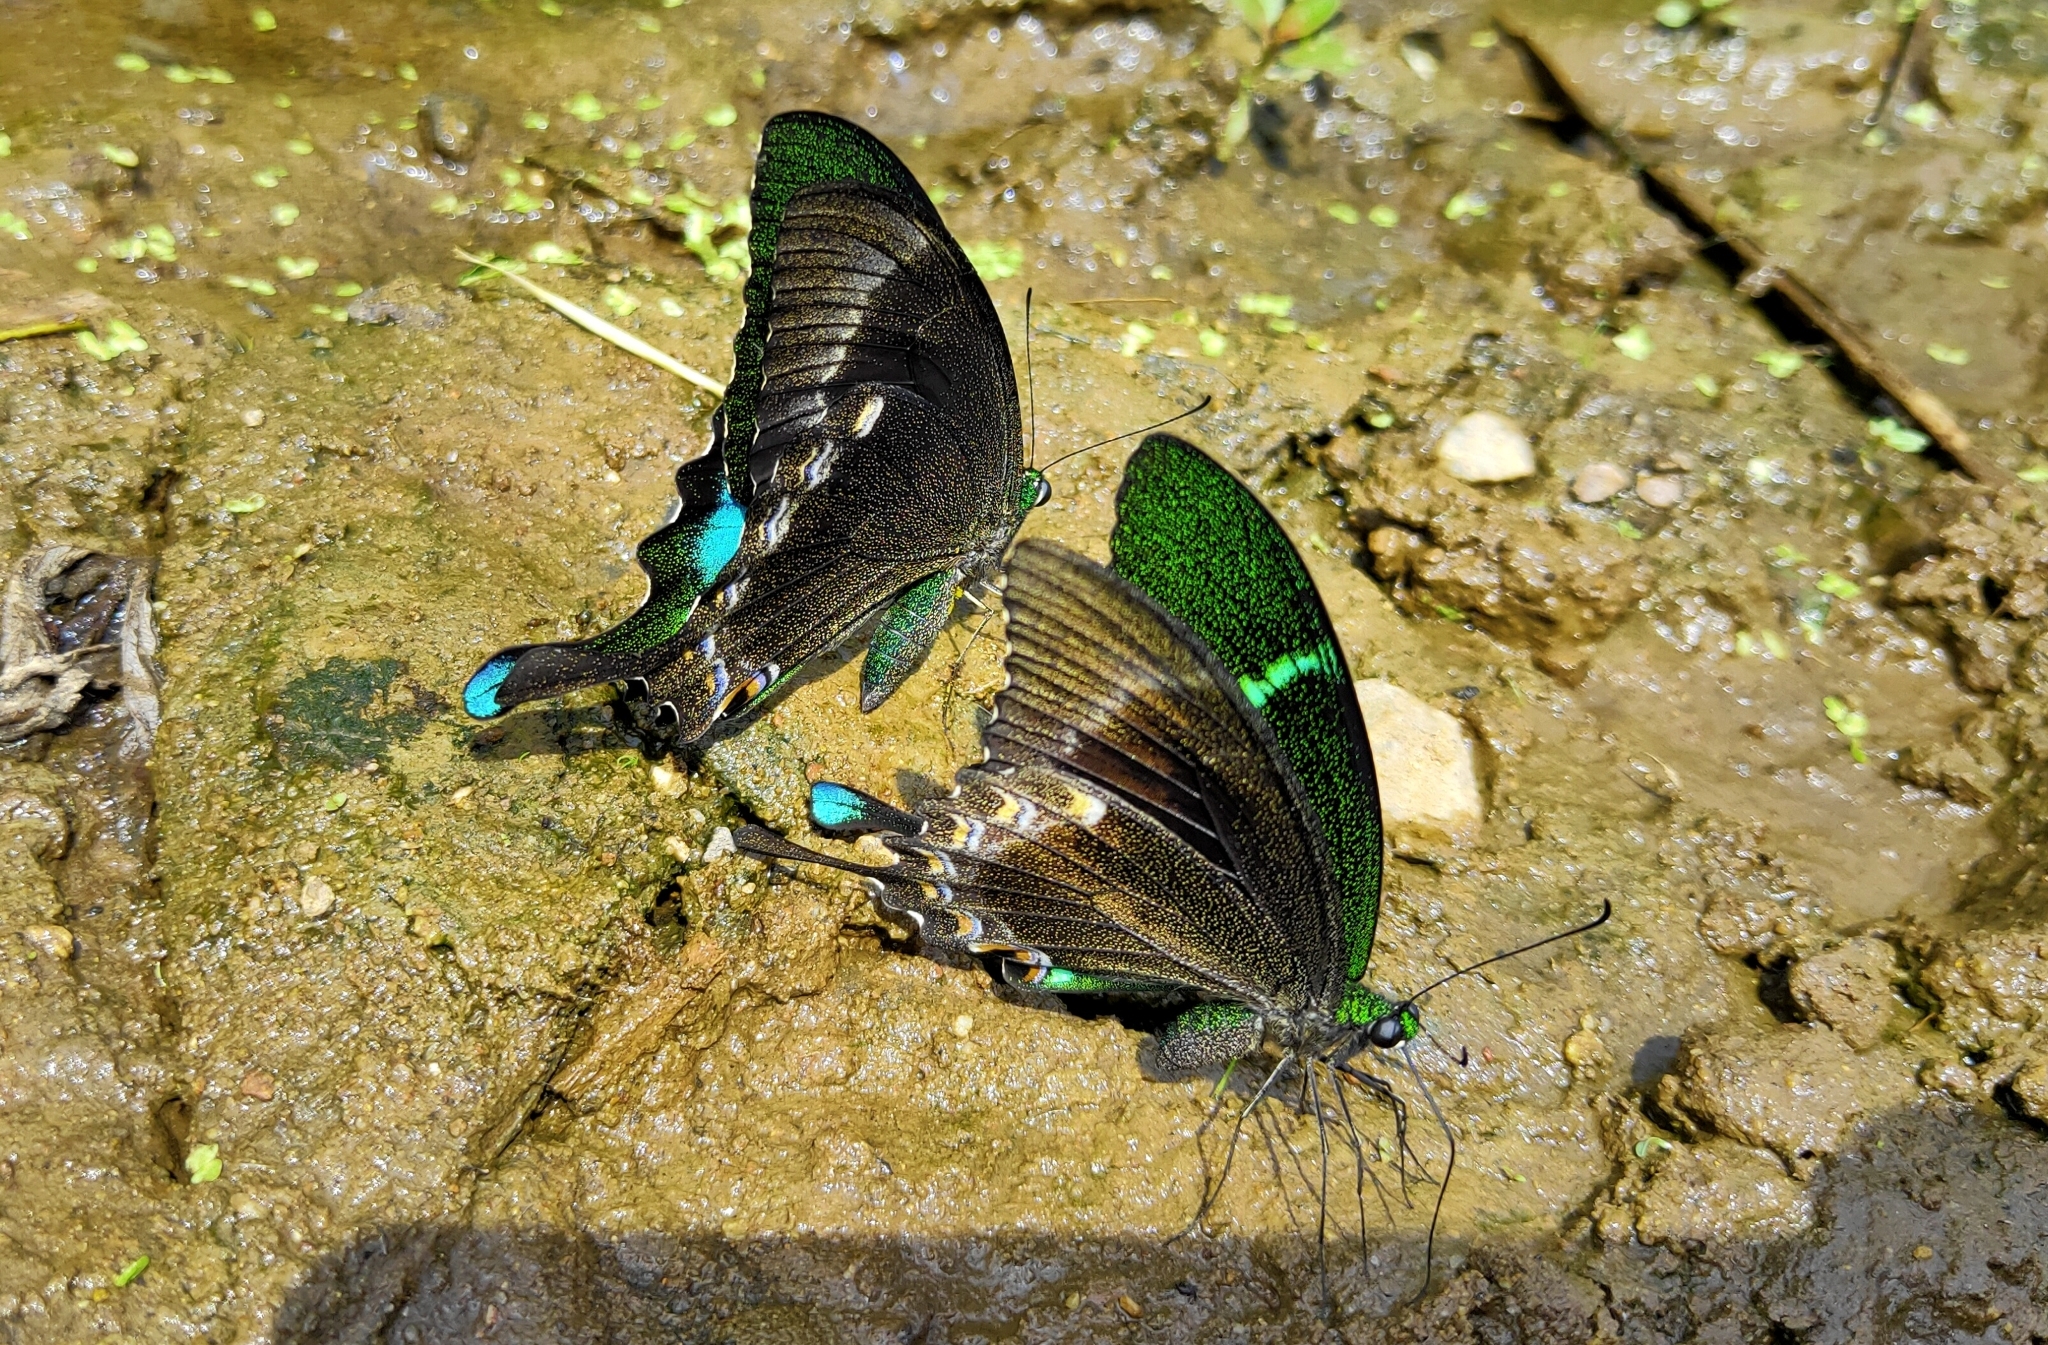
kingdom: Animalia
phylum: Arthropoda
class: Insecta
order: Lepidoptera
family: Papilionidae
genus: Papilio
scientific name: Papilio crino
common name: Common banded peacock
